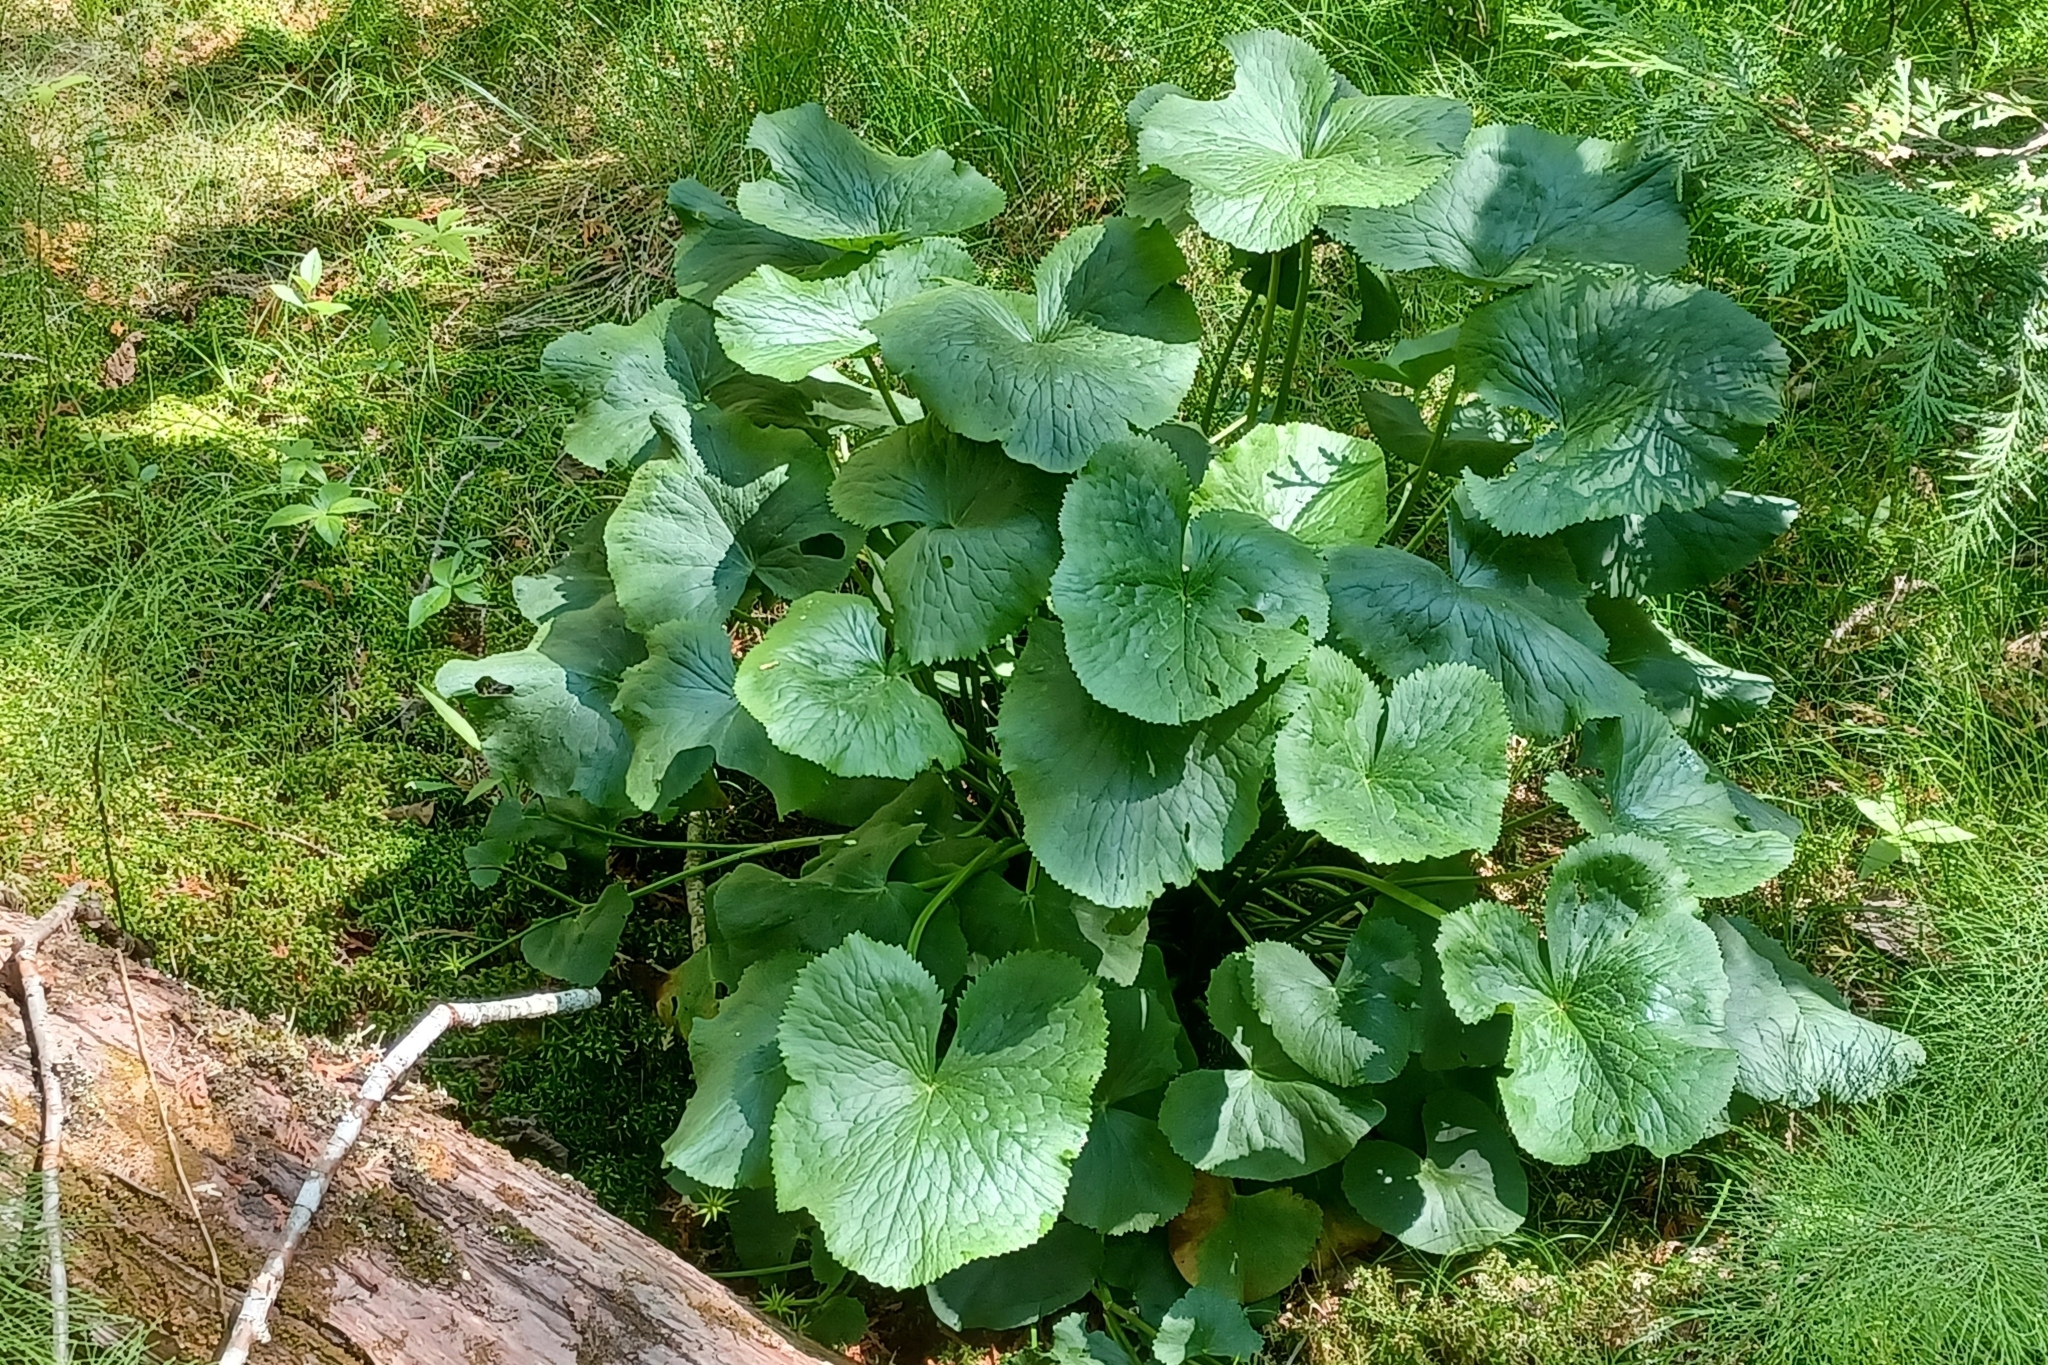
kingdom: Plantae
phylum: Tracheophyta
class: Magnoliopsida
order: Ranunculales
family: Ranunculaceae
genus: Caltha
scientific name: Caltha palustris
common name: Marsh marigold
